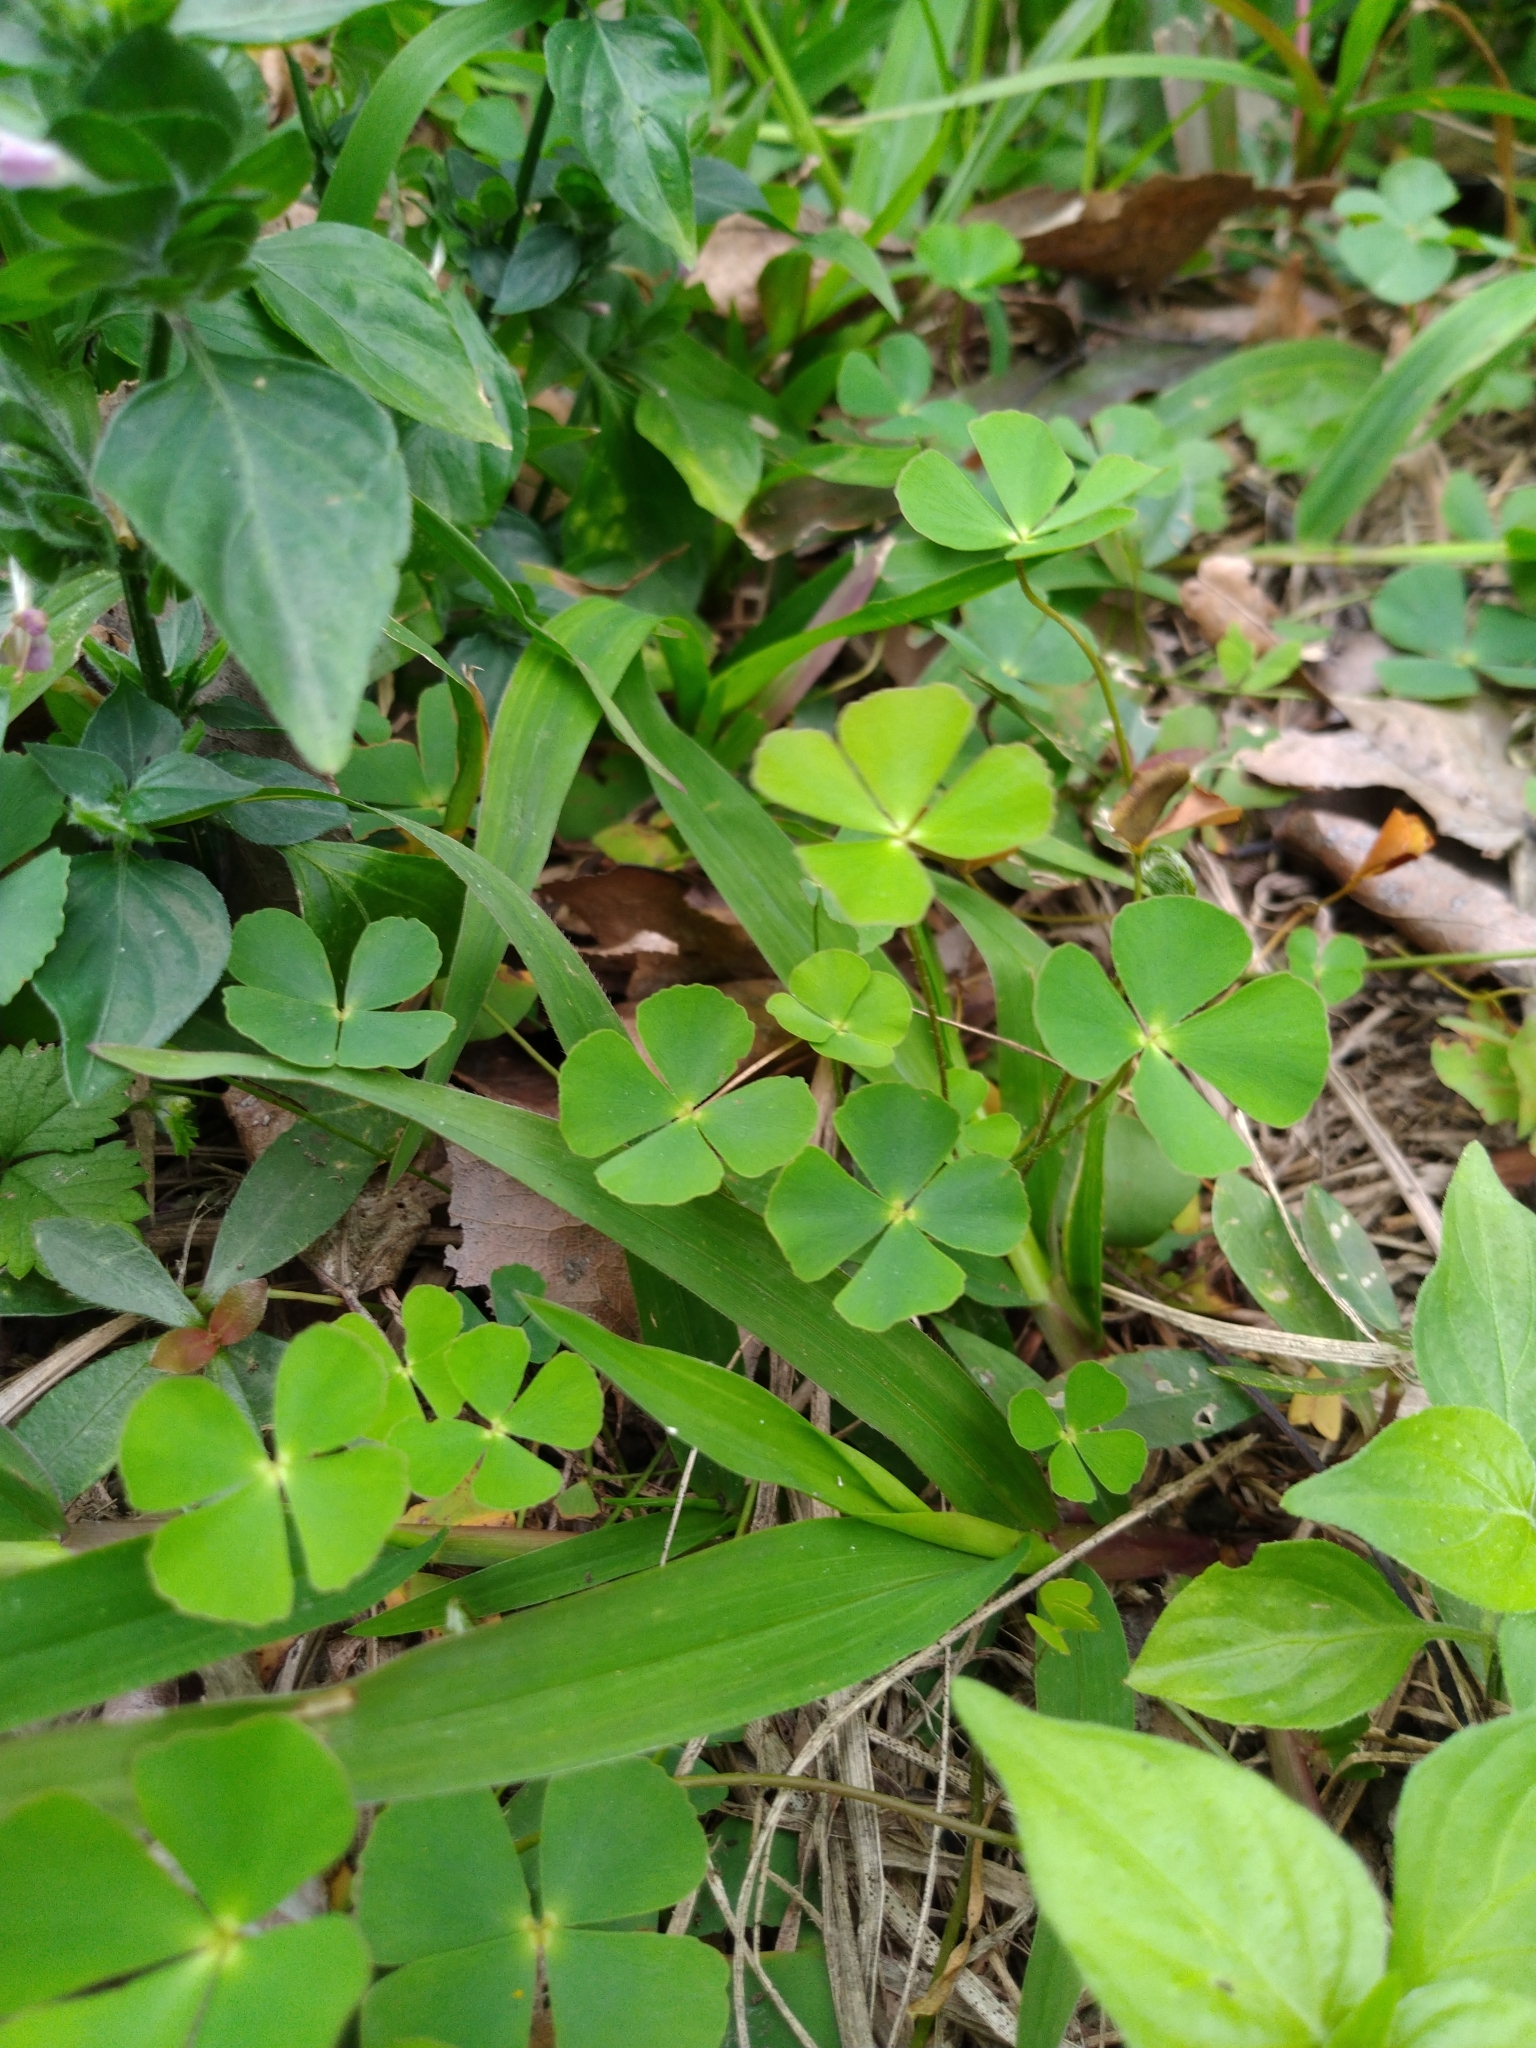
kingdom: Plantae
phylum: Tracheophyta
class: Polypodiopsida
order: Salviniales
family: Marsileaceae
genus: Marsilea
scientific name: Marsilea minuta
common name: Dwarf waterclover
